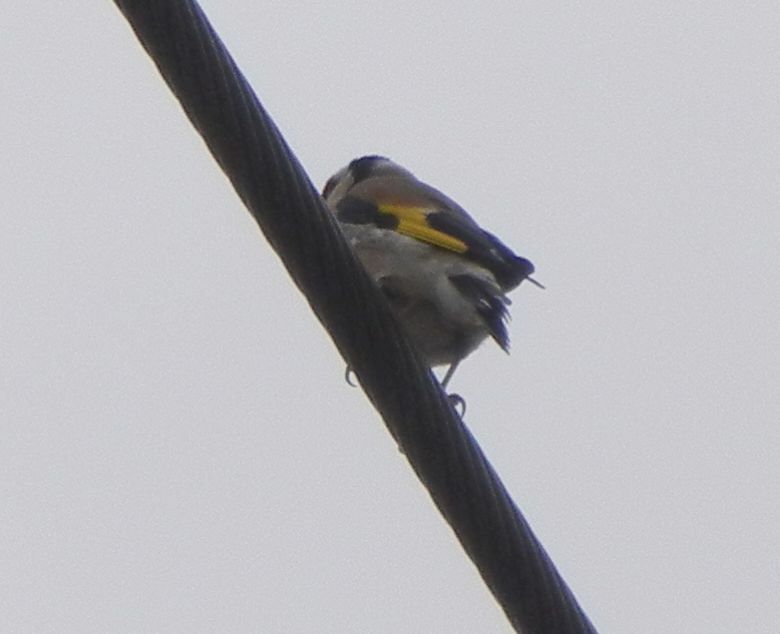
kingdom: Animalia
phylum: Chordata
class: Aves
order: Passeriformes
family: Fringillidae
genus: Carduelis
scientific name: Carduelis carduelis
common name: European goldfinch
